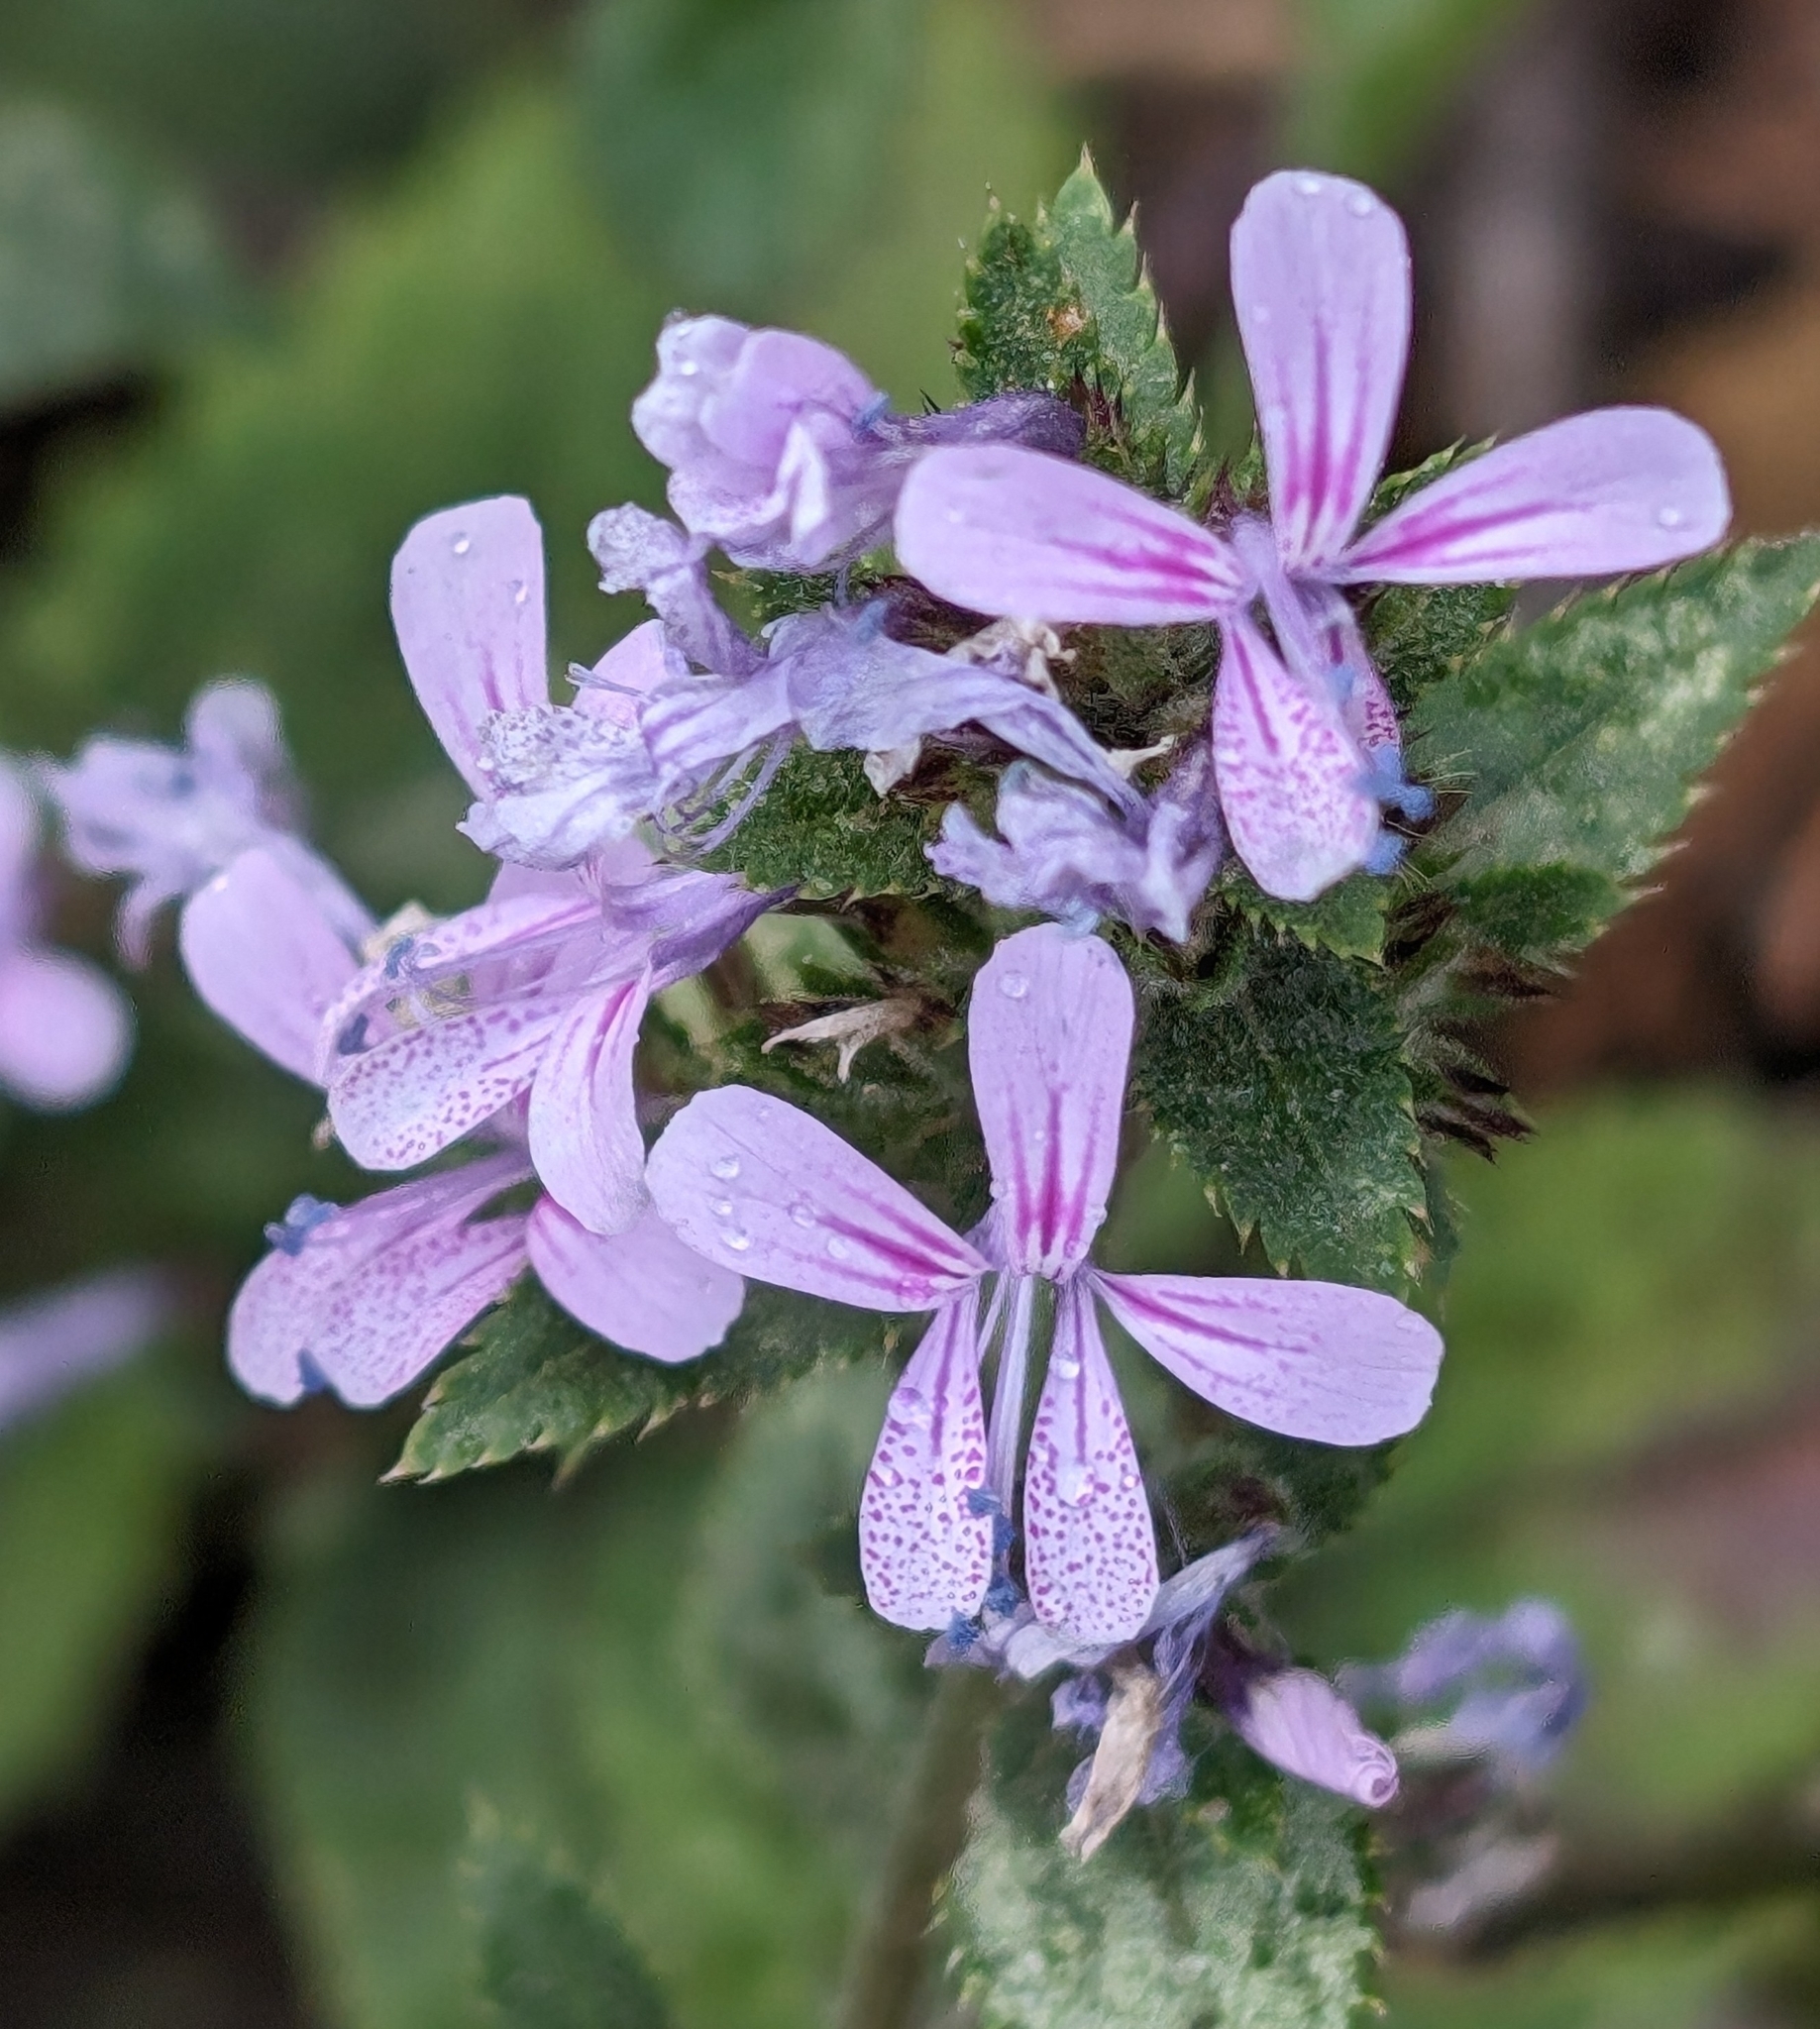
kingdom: Plantae
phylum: Tracheophyta
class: Magnoliopsida
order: Ericales
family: Polemoniaceae
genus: Loeselia
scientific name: Loeselia glandulosa
